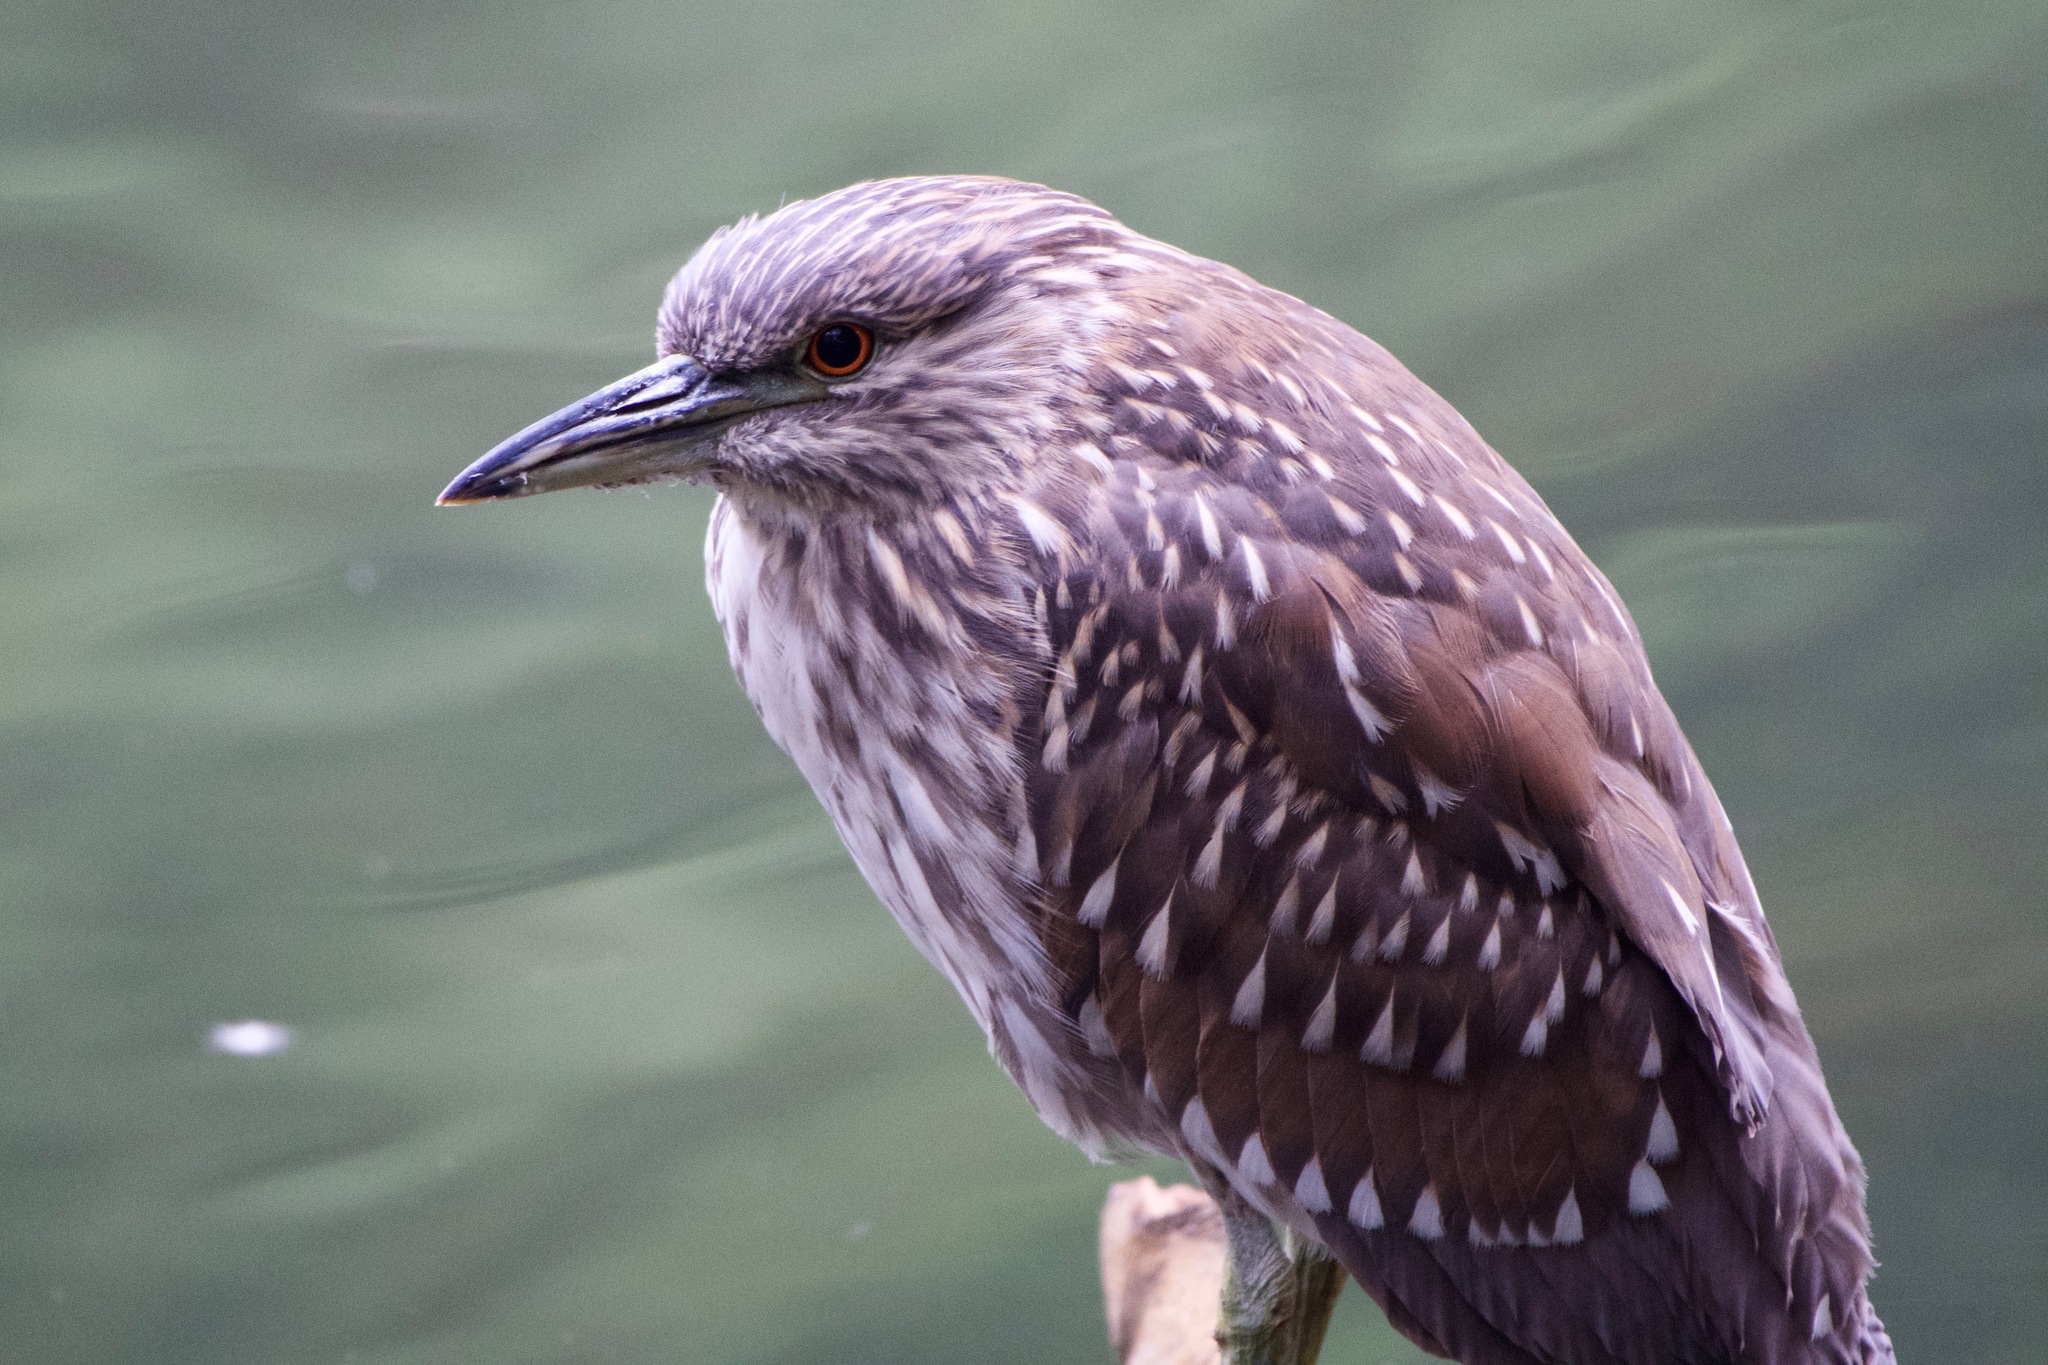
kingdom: Animalia
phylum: Chordata
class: Aves
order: Pelecaniformes
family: Ardeidae
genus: Nycticorax
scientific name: Nycticorax nycticorax
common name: Black-crowned night heron
